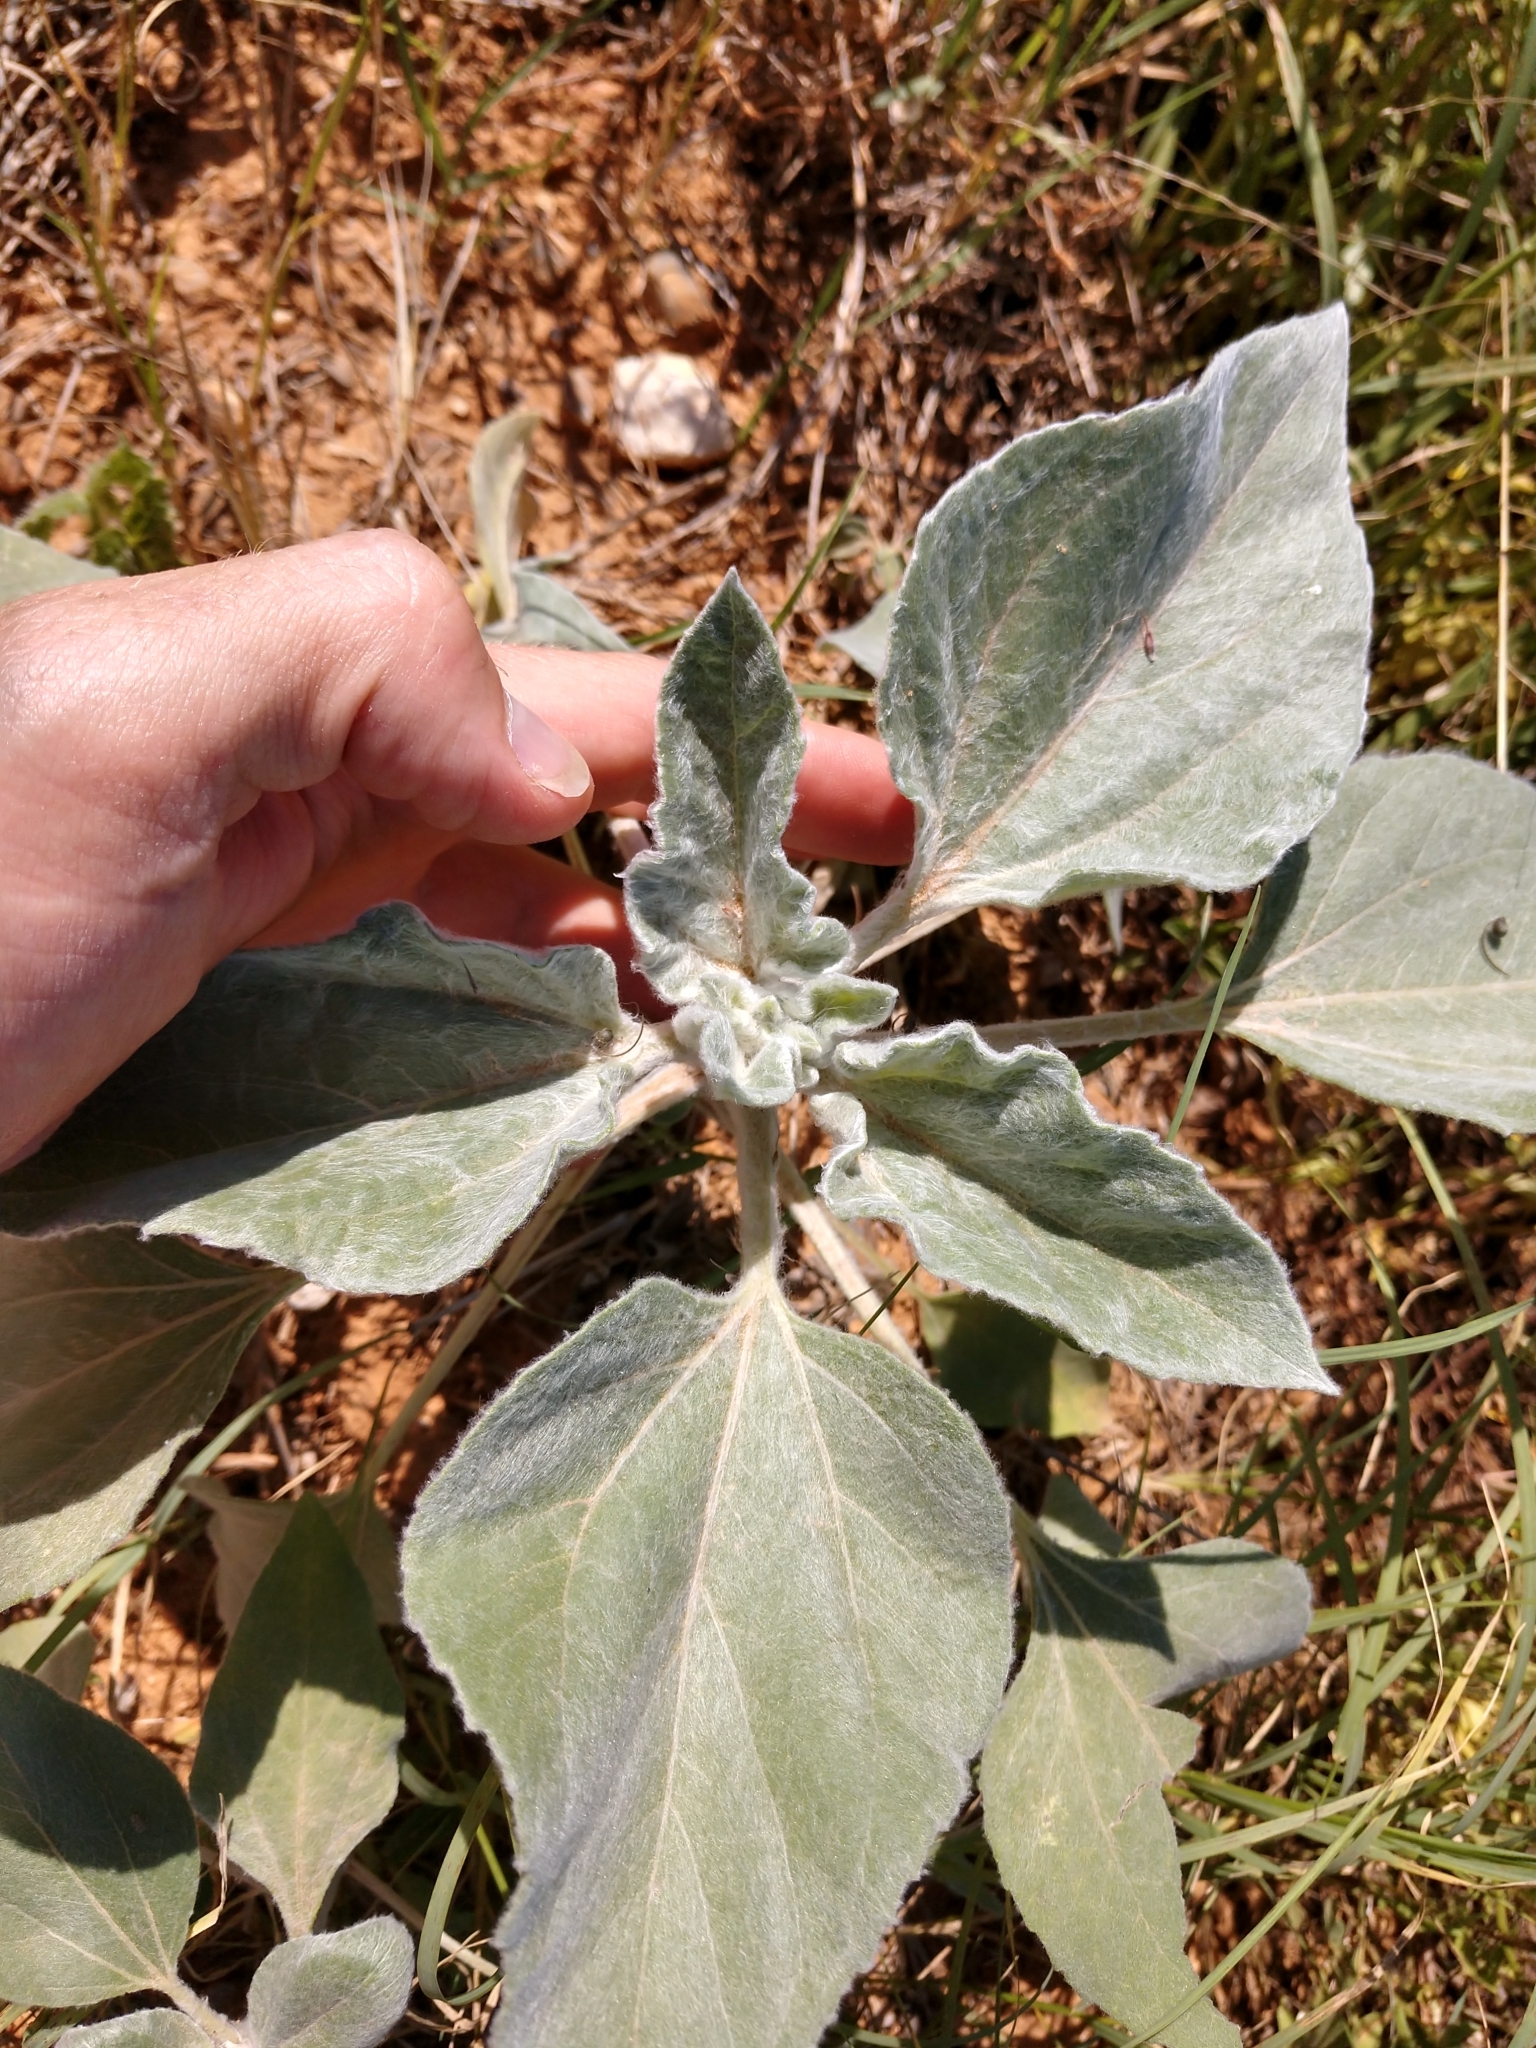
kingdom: Plantae
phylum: Tracheophyta
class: Magnoliopsida
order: Asterales
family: Asteraceae
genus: Helianthus
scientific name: Helianthus argophyllus
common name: Silverleaf sunflower
